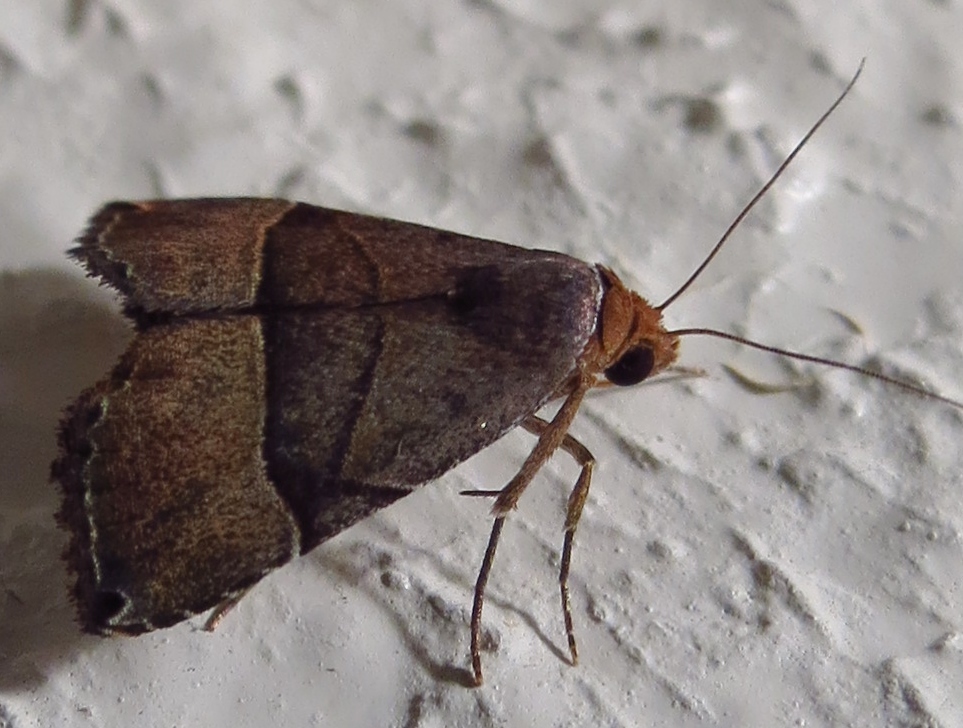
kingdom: Animalia
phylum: Arthropoda
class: Insecta
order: Lepidoptera
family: Noctuidae
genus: Abacena
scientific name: Abacena mundula
